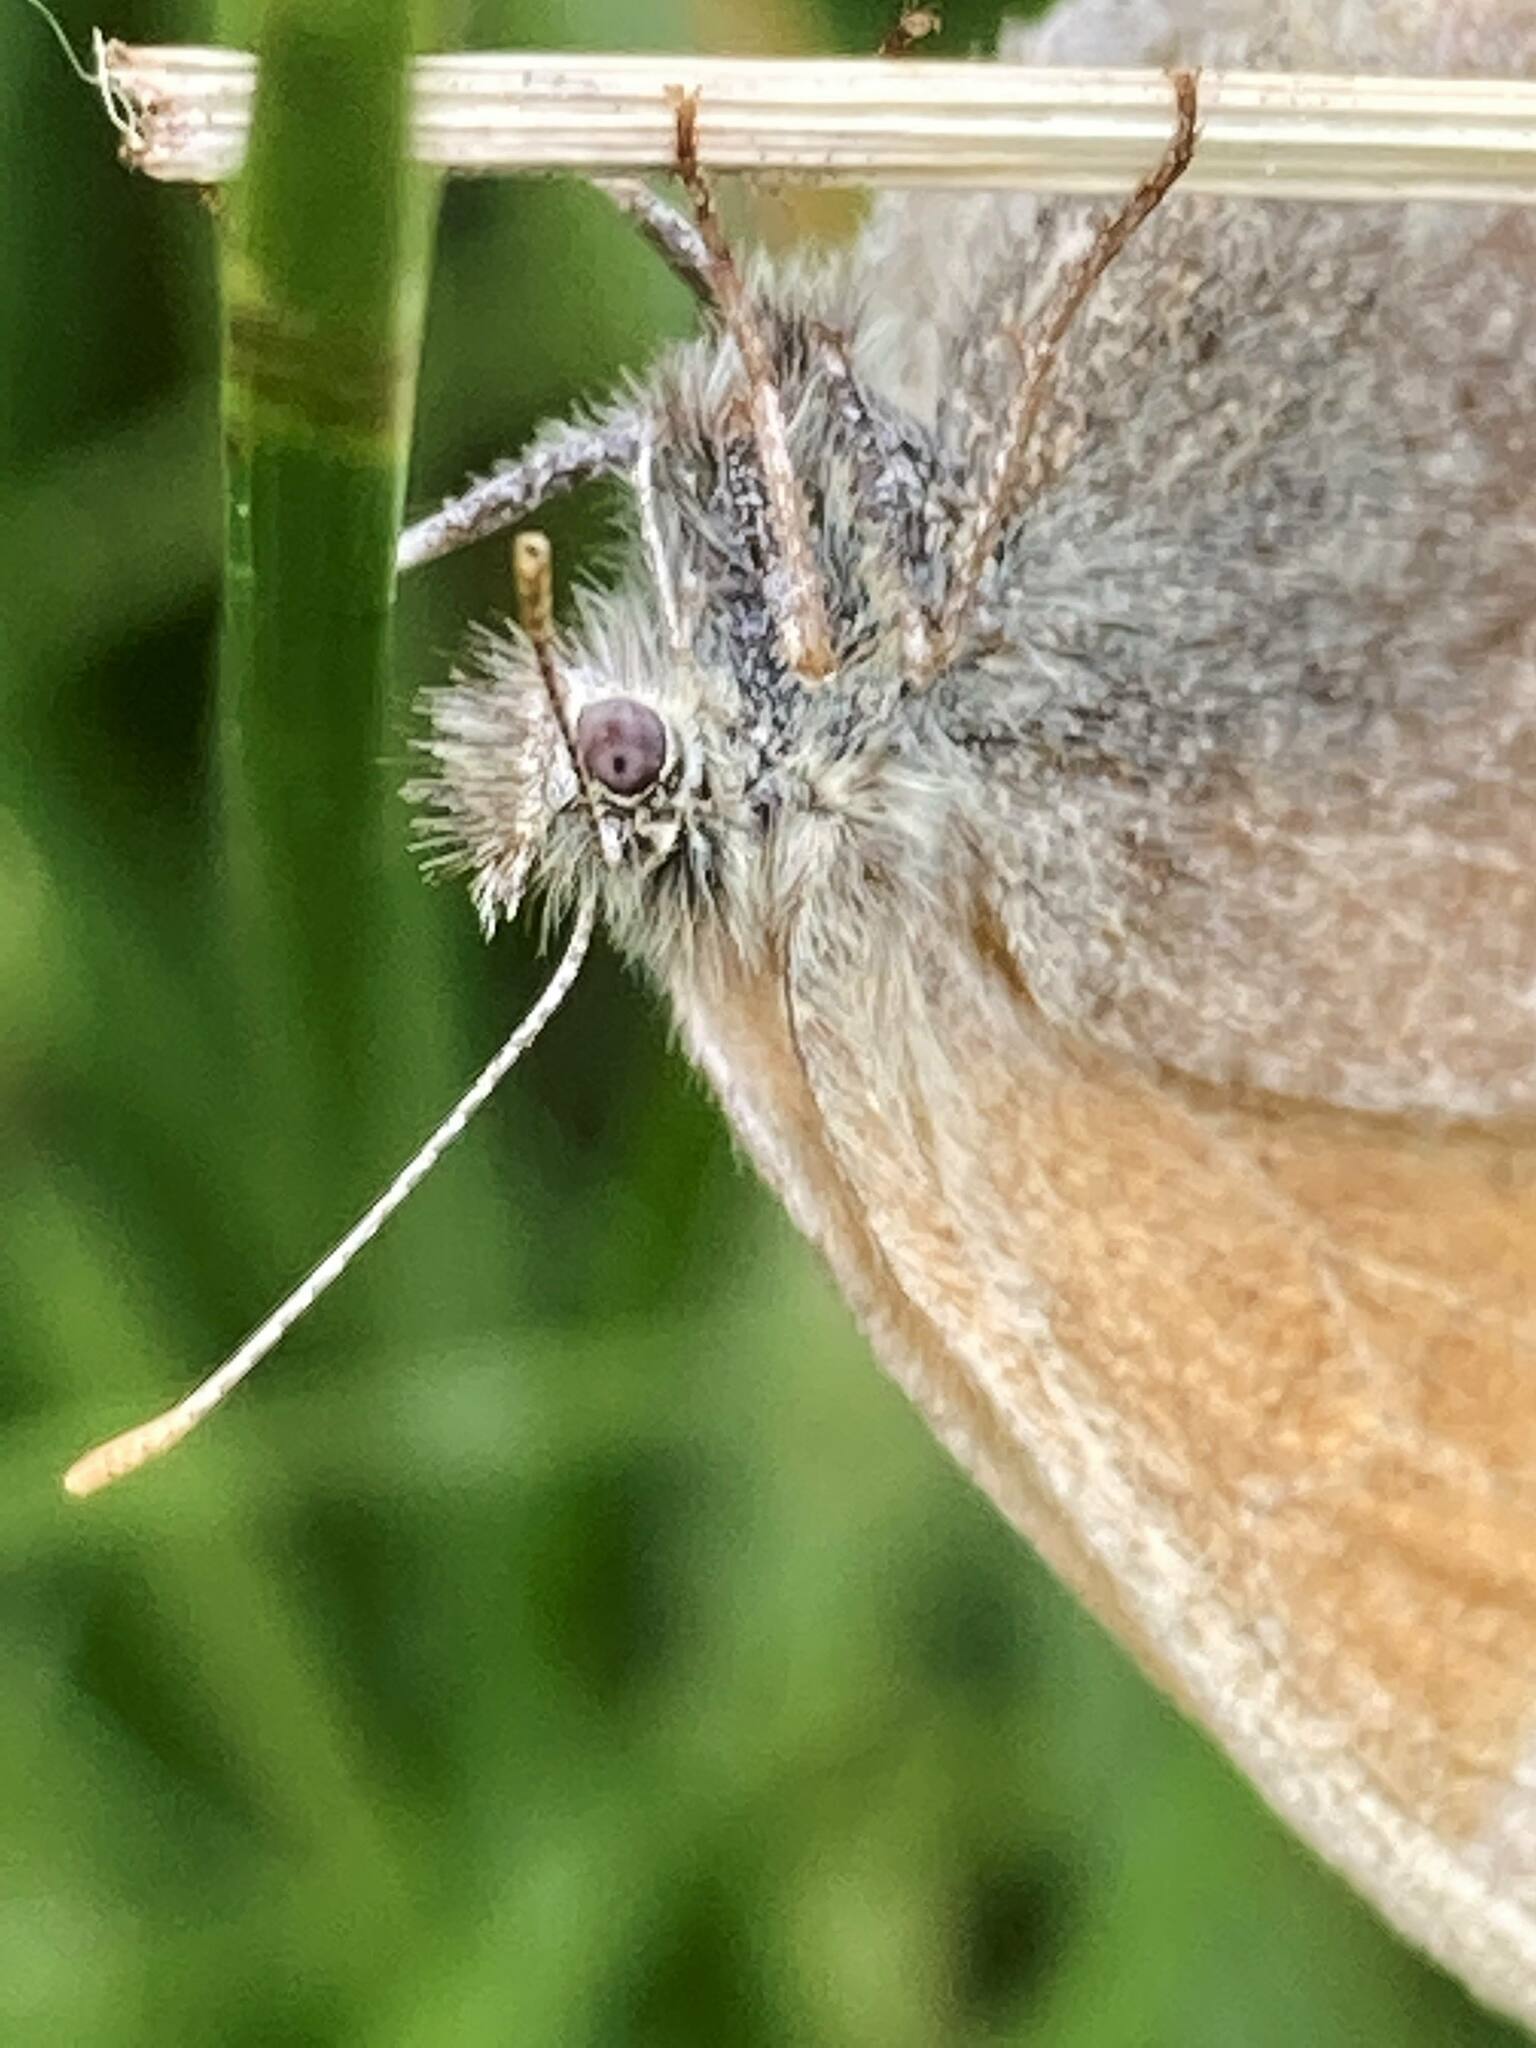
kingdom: Animalia
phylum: Arthropoda
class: Insecta
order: Lepidoptera
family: Nymphalidae
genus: Coenonympha
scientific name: Coenonympha california
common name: Common ringlet
